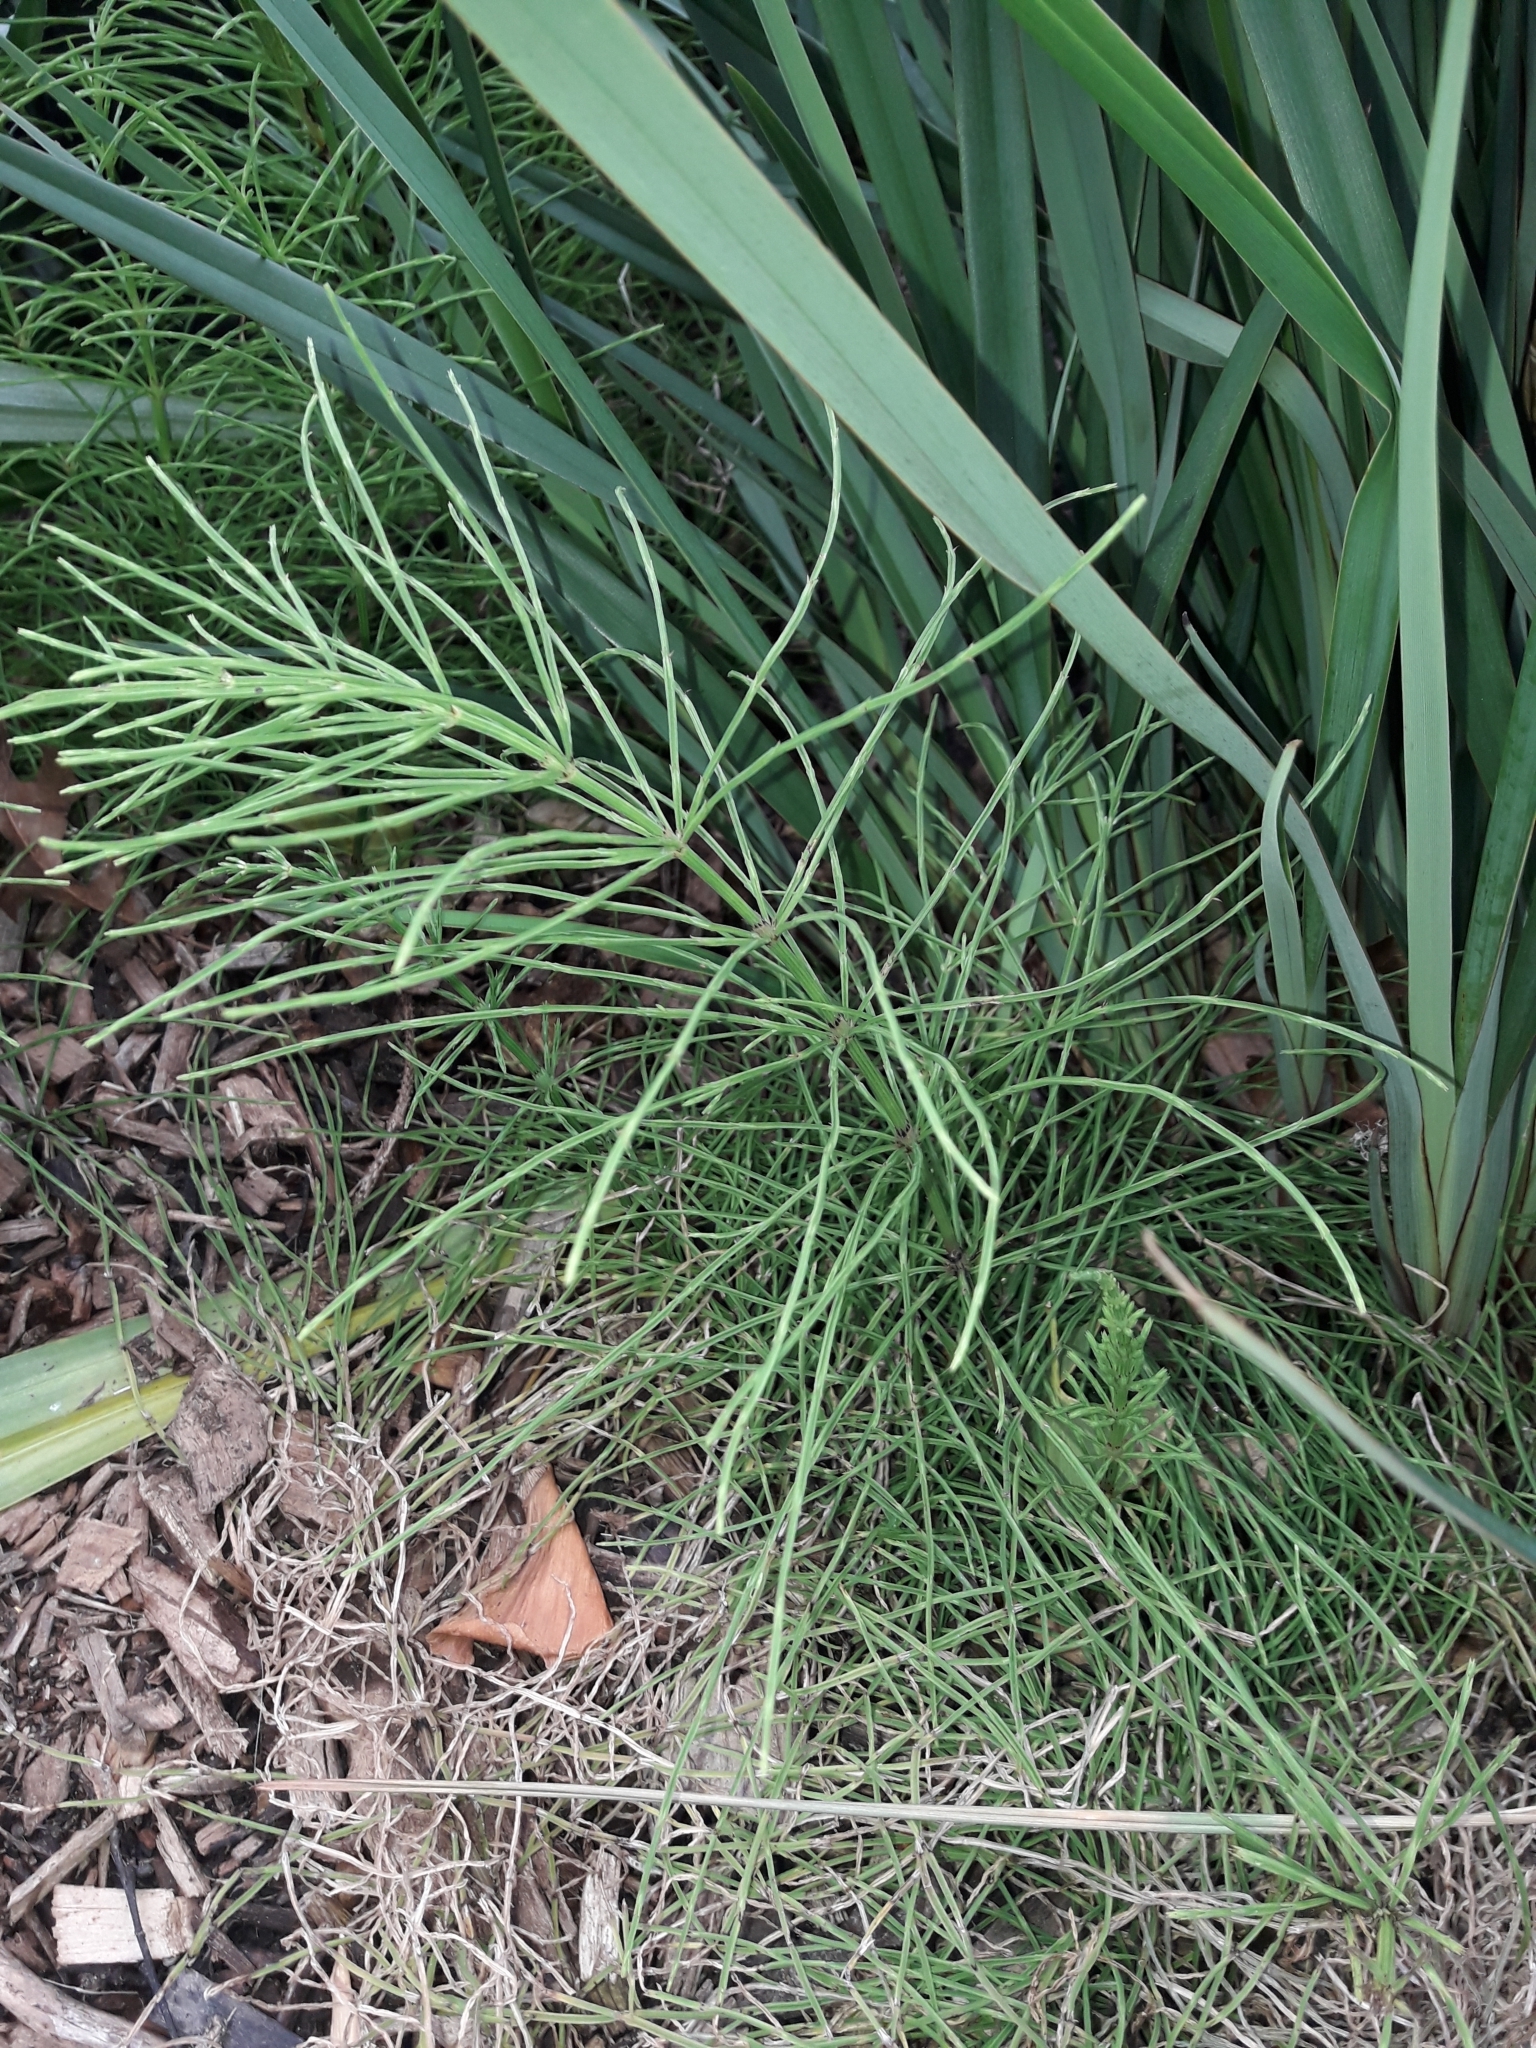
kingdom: Plantae
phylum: Tracheophyta
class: Polypodiopsida
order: Equisetales
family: Equisetaceae
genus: Equisetum
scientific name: Equisetum arvense
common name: Field horsetail
